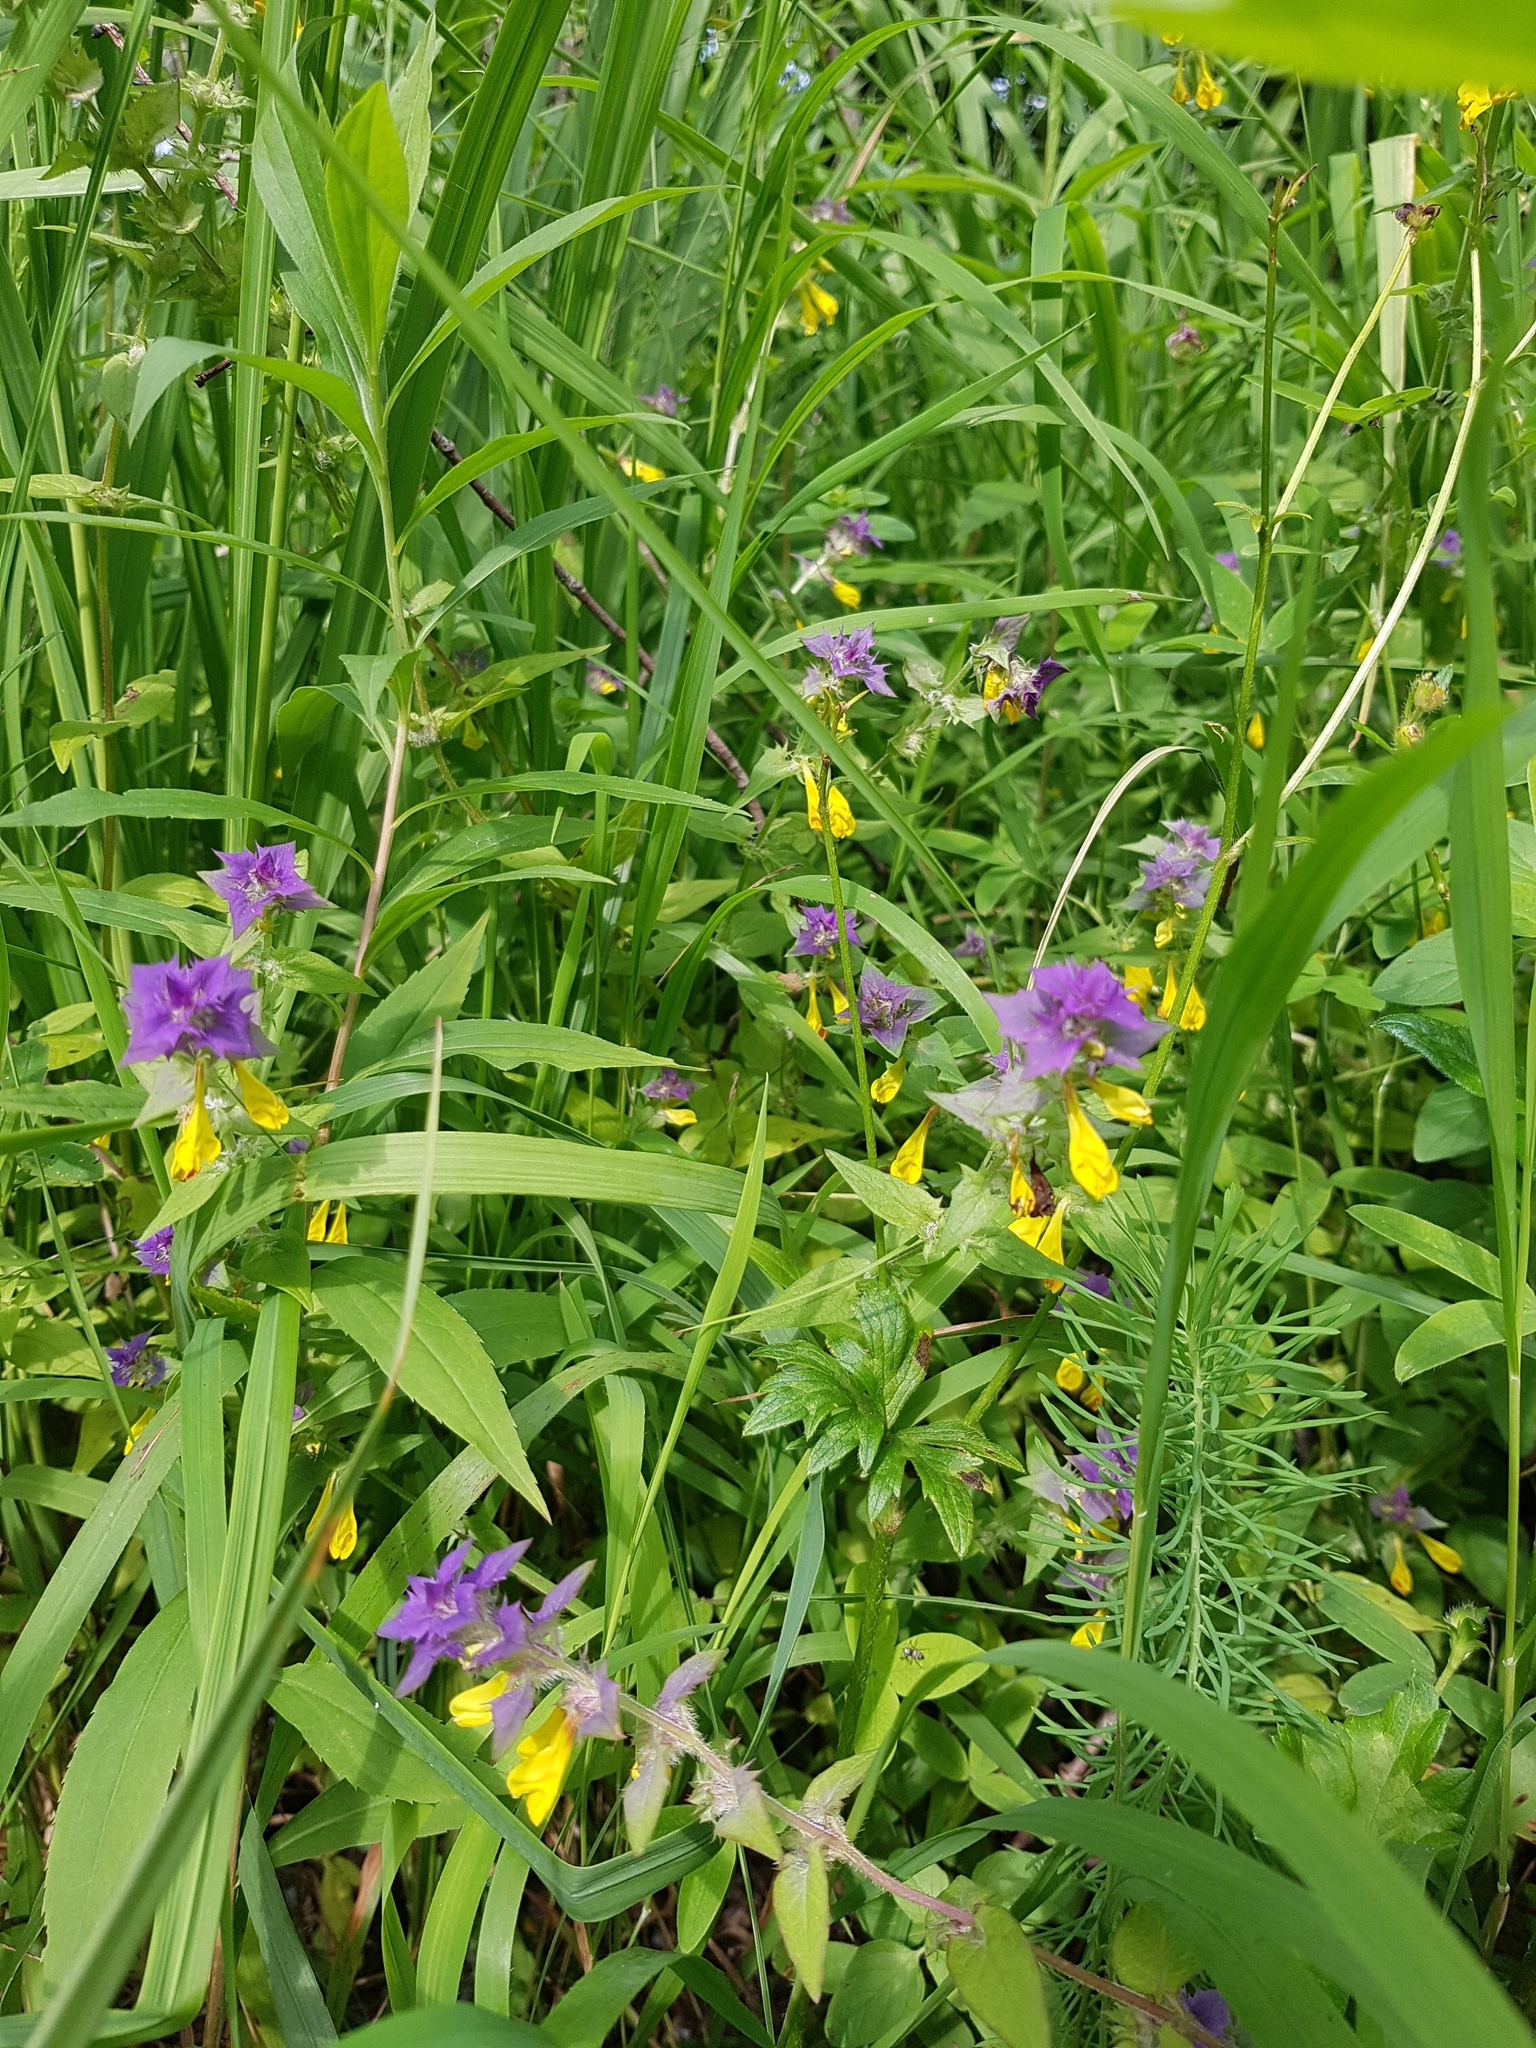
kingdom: Plantae
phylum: Tracheophyta
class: Magnoliopsida
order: Lamiales
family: Orobanchaceae
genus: Melampyrum
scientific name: Melampyrum nemorosum
